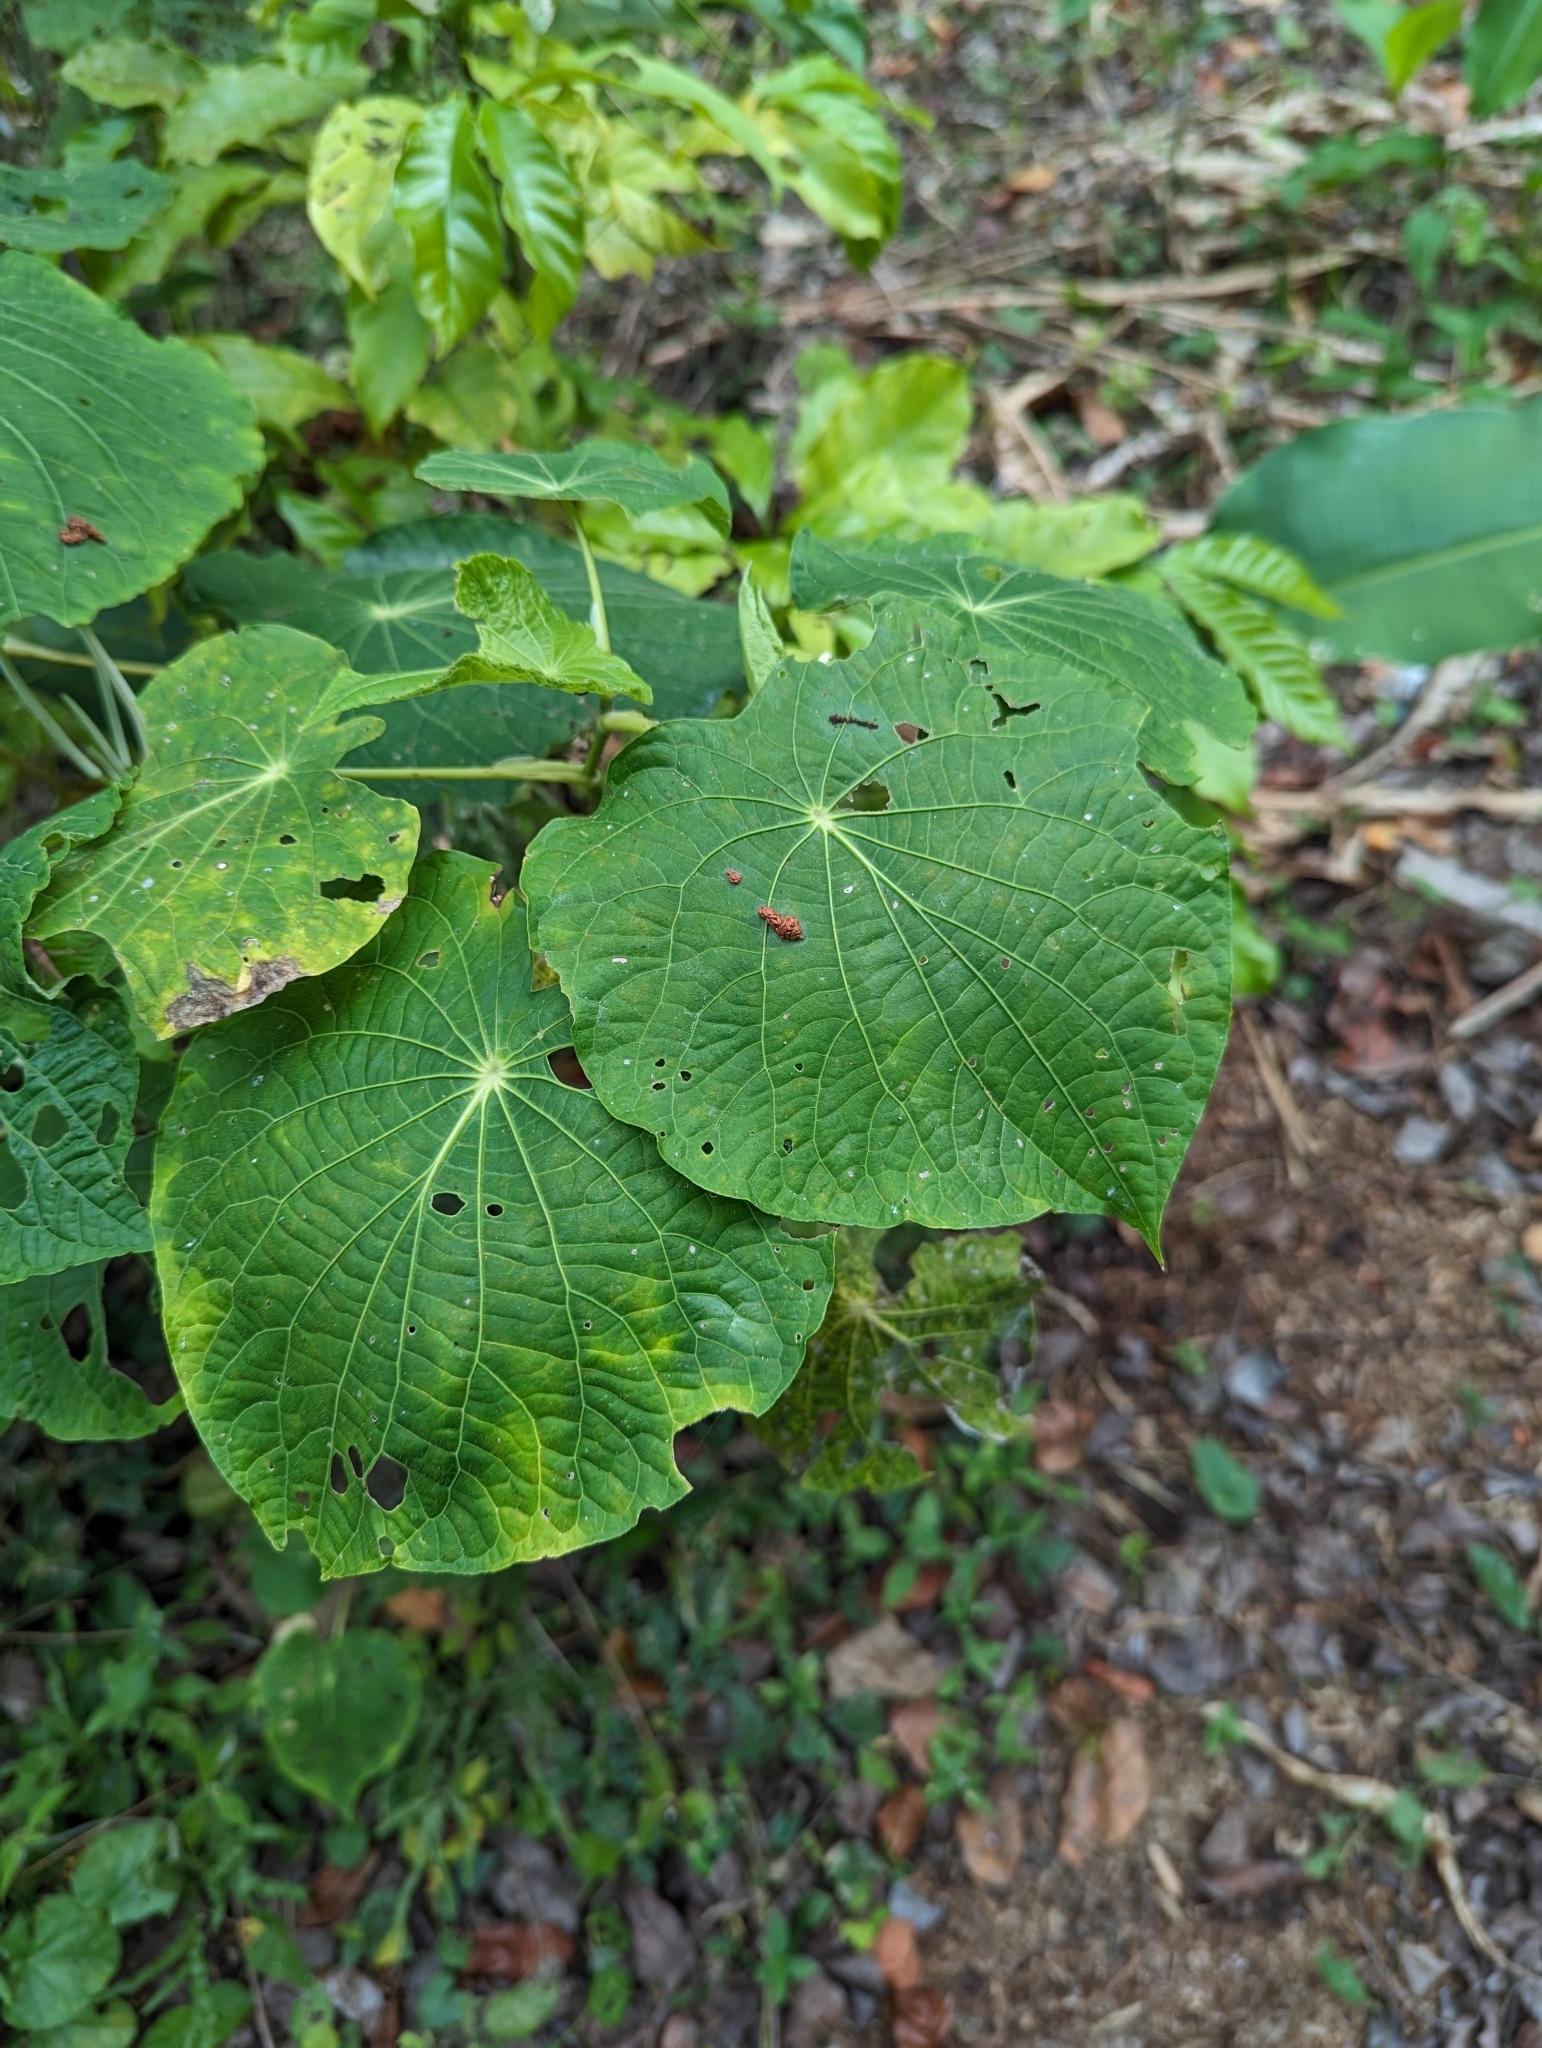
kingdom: Plantae
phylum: Tracheophyta
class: Magnoliopsida
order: Piperales
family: Piperaceae
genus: Piper
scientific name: Piper peltatum
